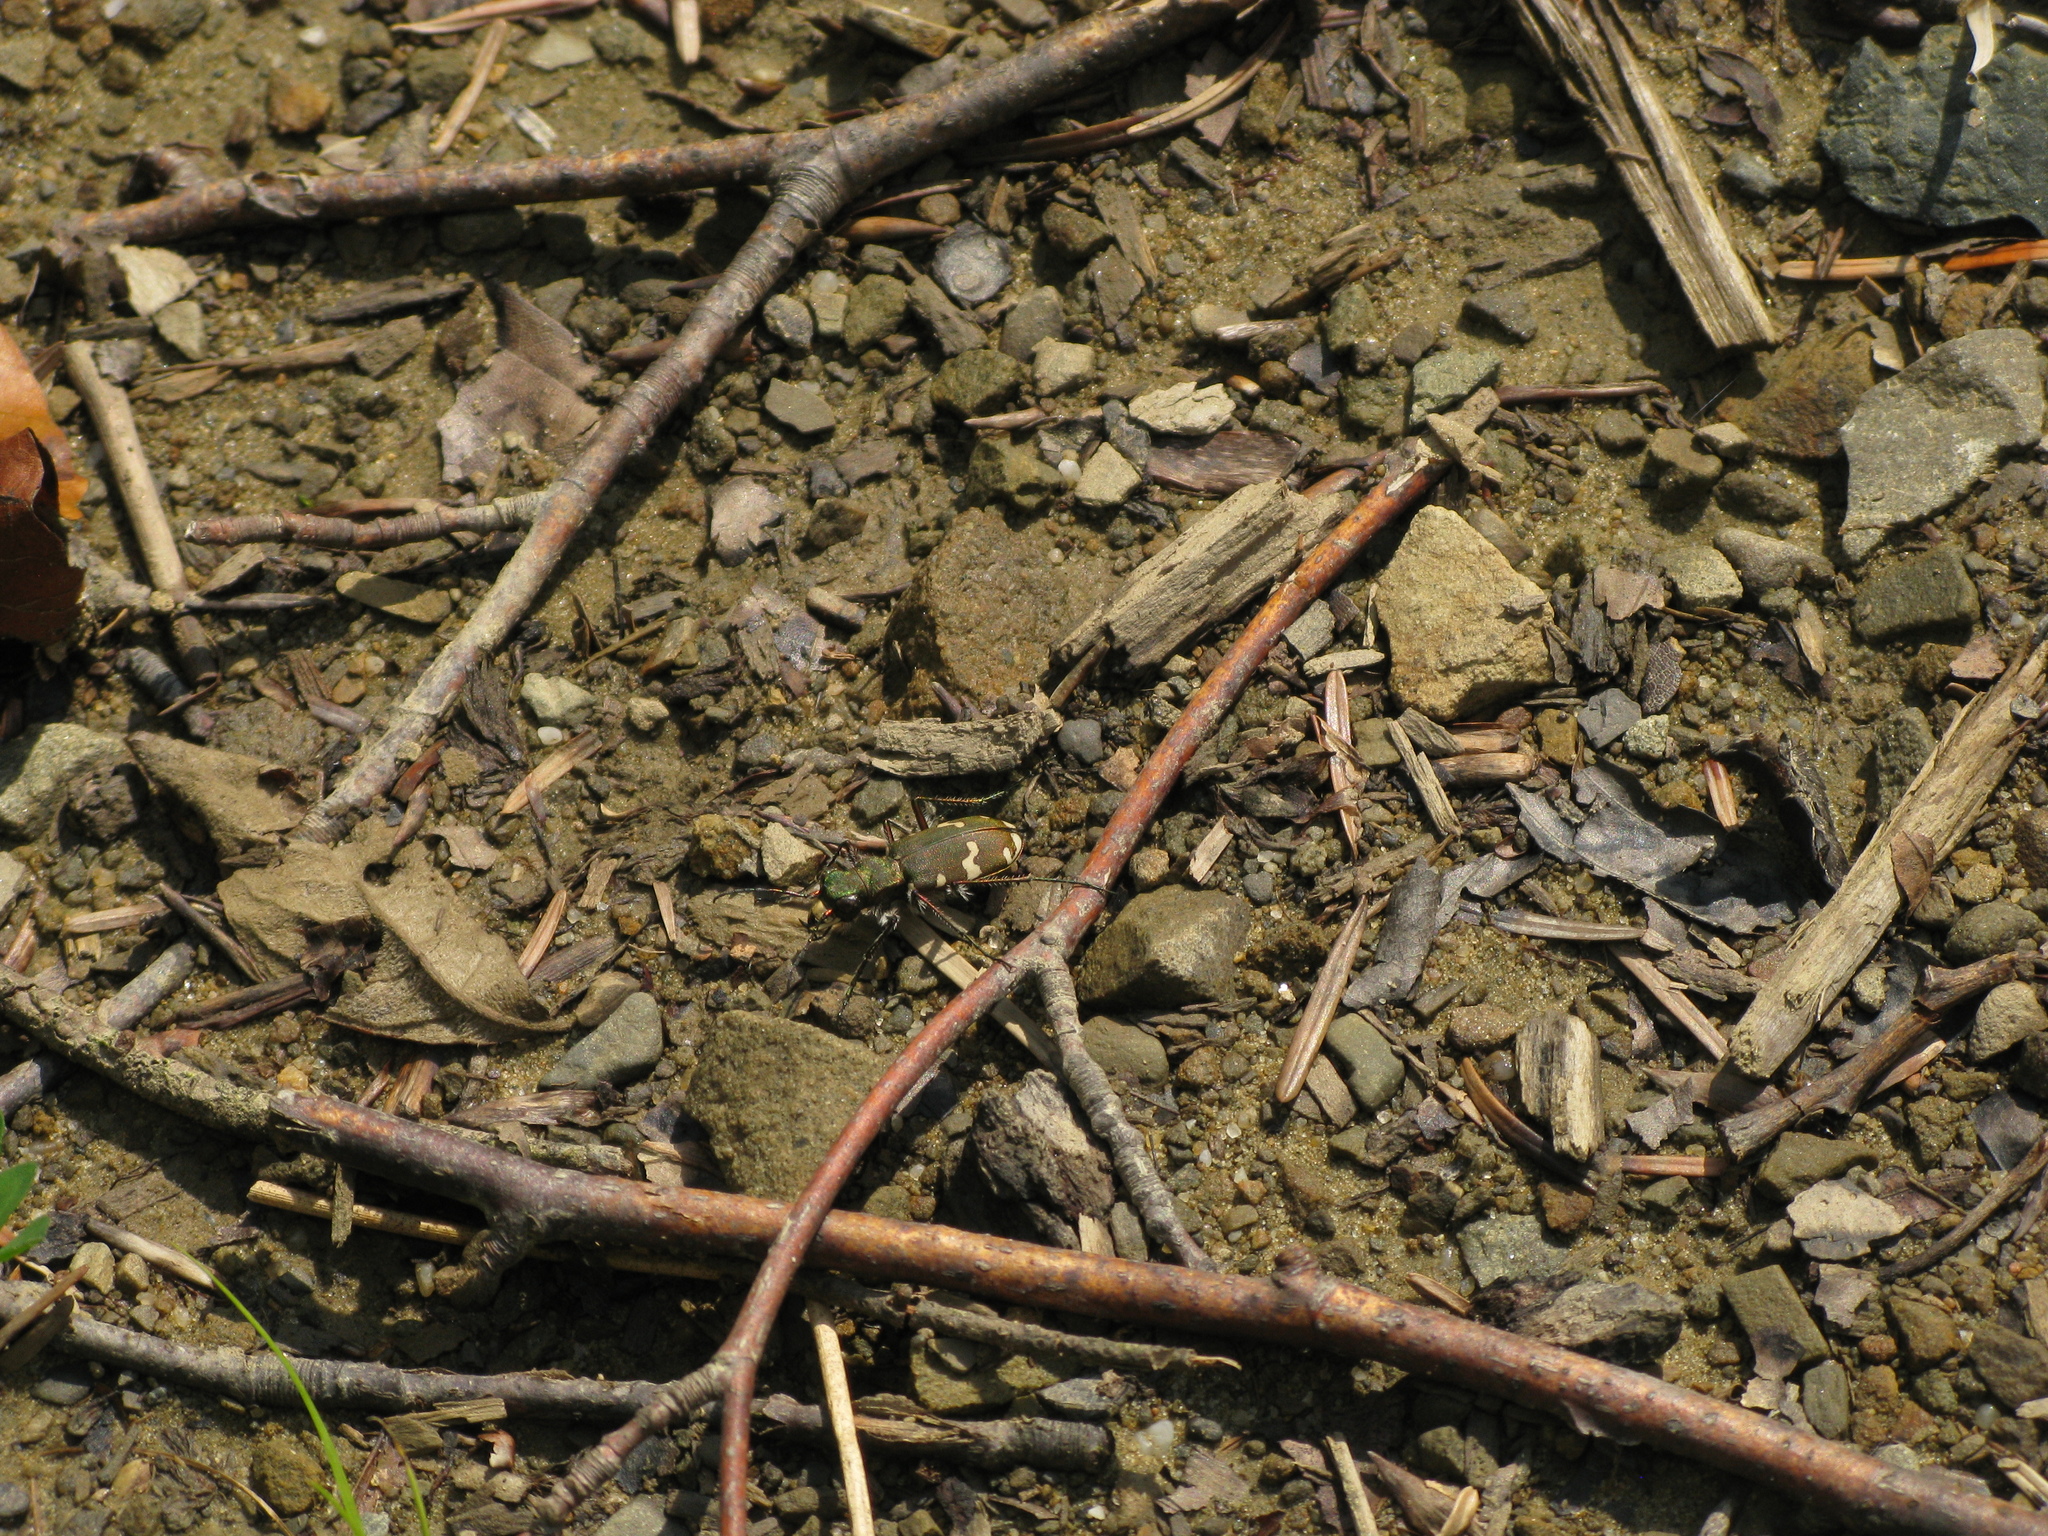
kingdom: Animalia
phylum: Arthropoda
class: Insecta
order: Coleoptera
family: Carabidae
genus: Cicindela
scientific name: Cicindela sylvicola
